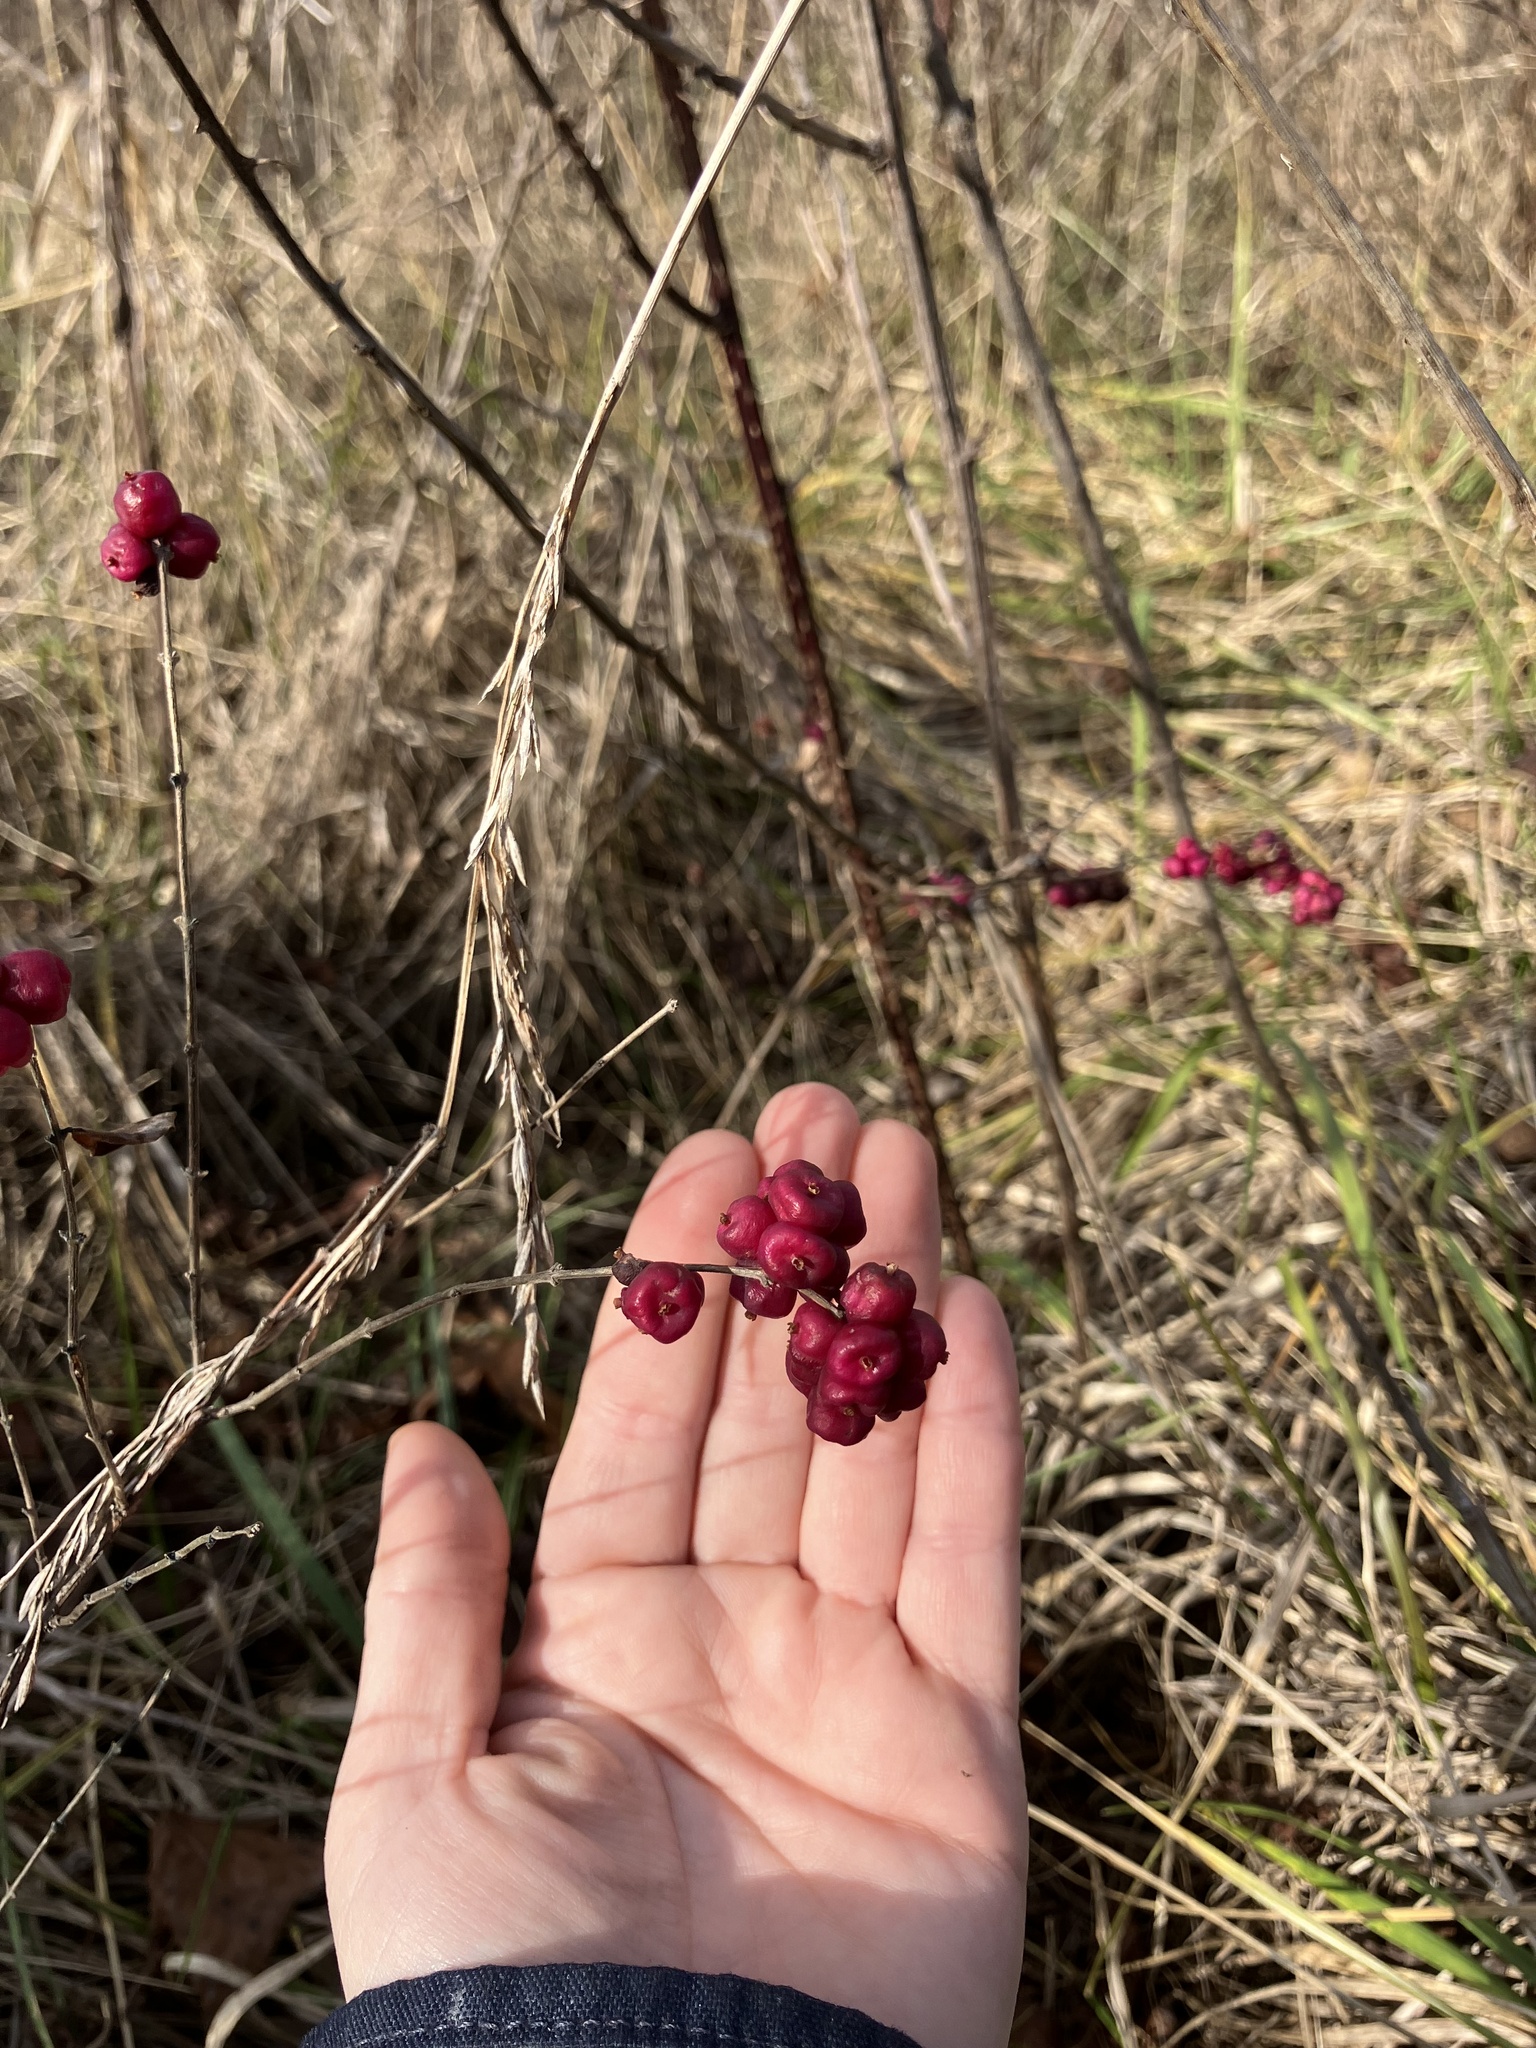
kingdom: Plantae
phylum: Tracheophyta
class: Magnoliopsida
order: Dipsacales
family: Caprifoliaceae
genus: Symphoricarpos
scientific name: Symphoricarpos orbiculatus
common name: Coralberry
